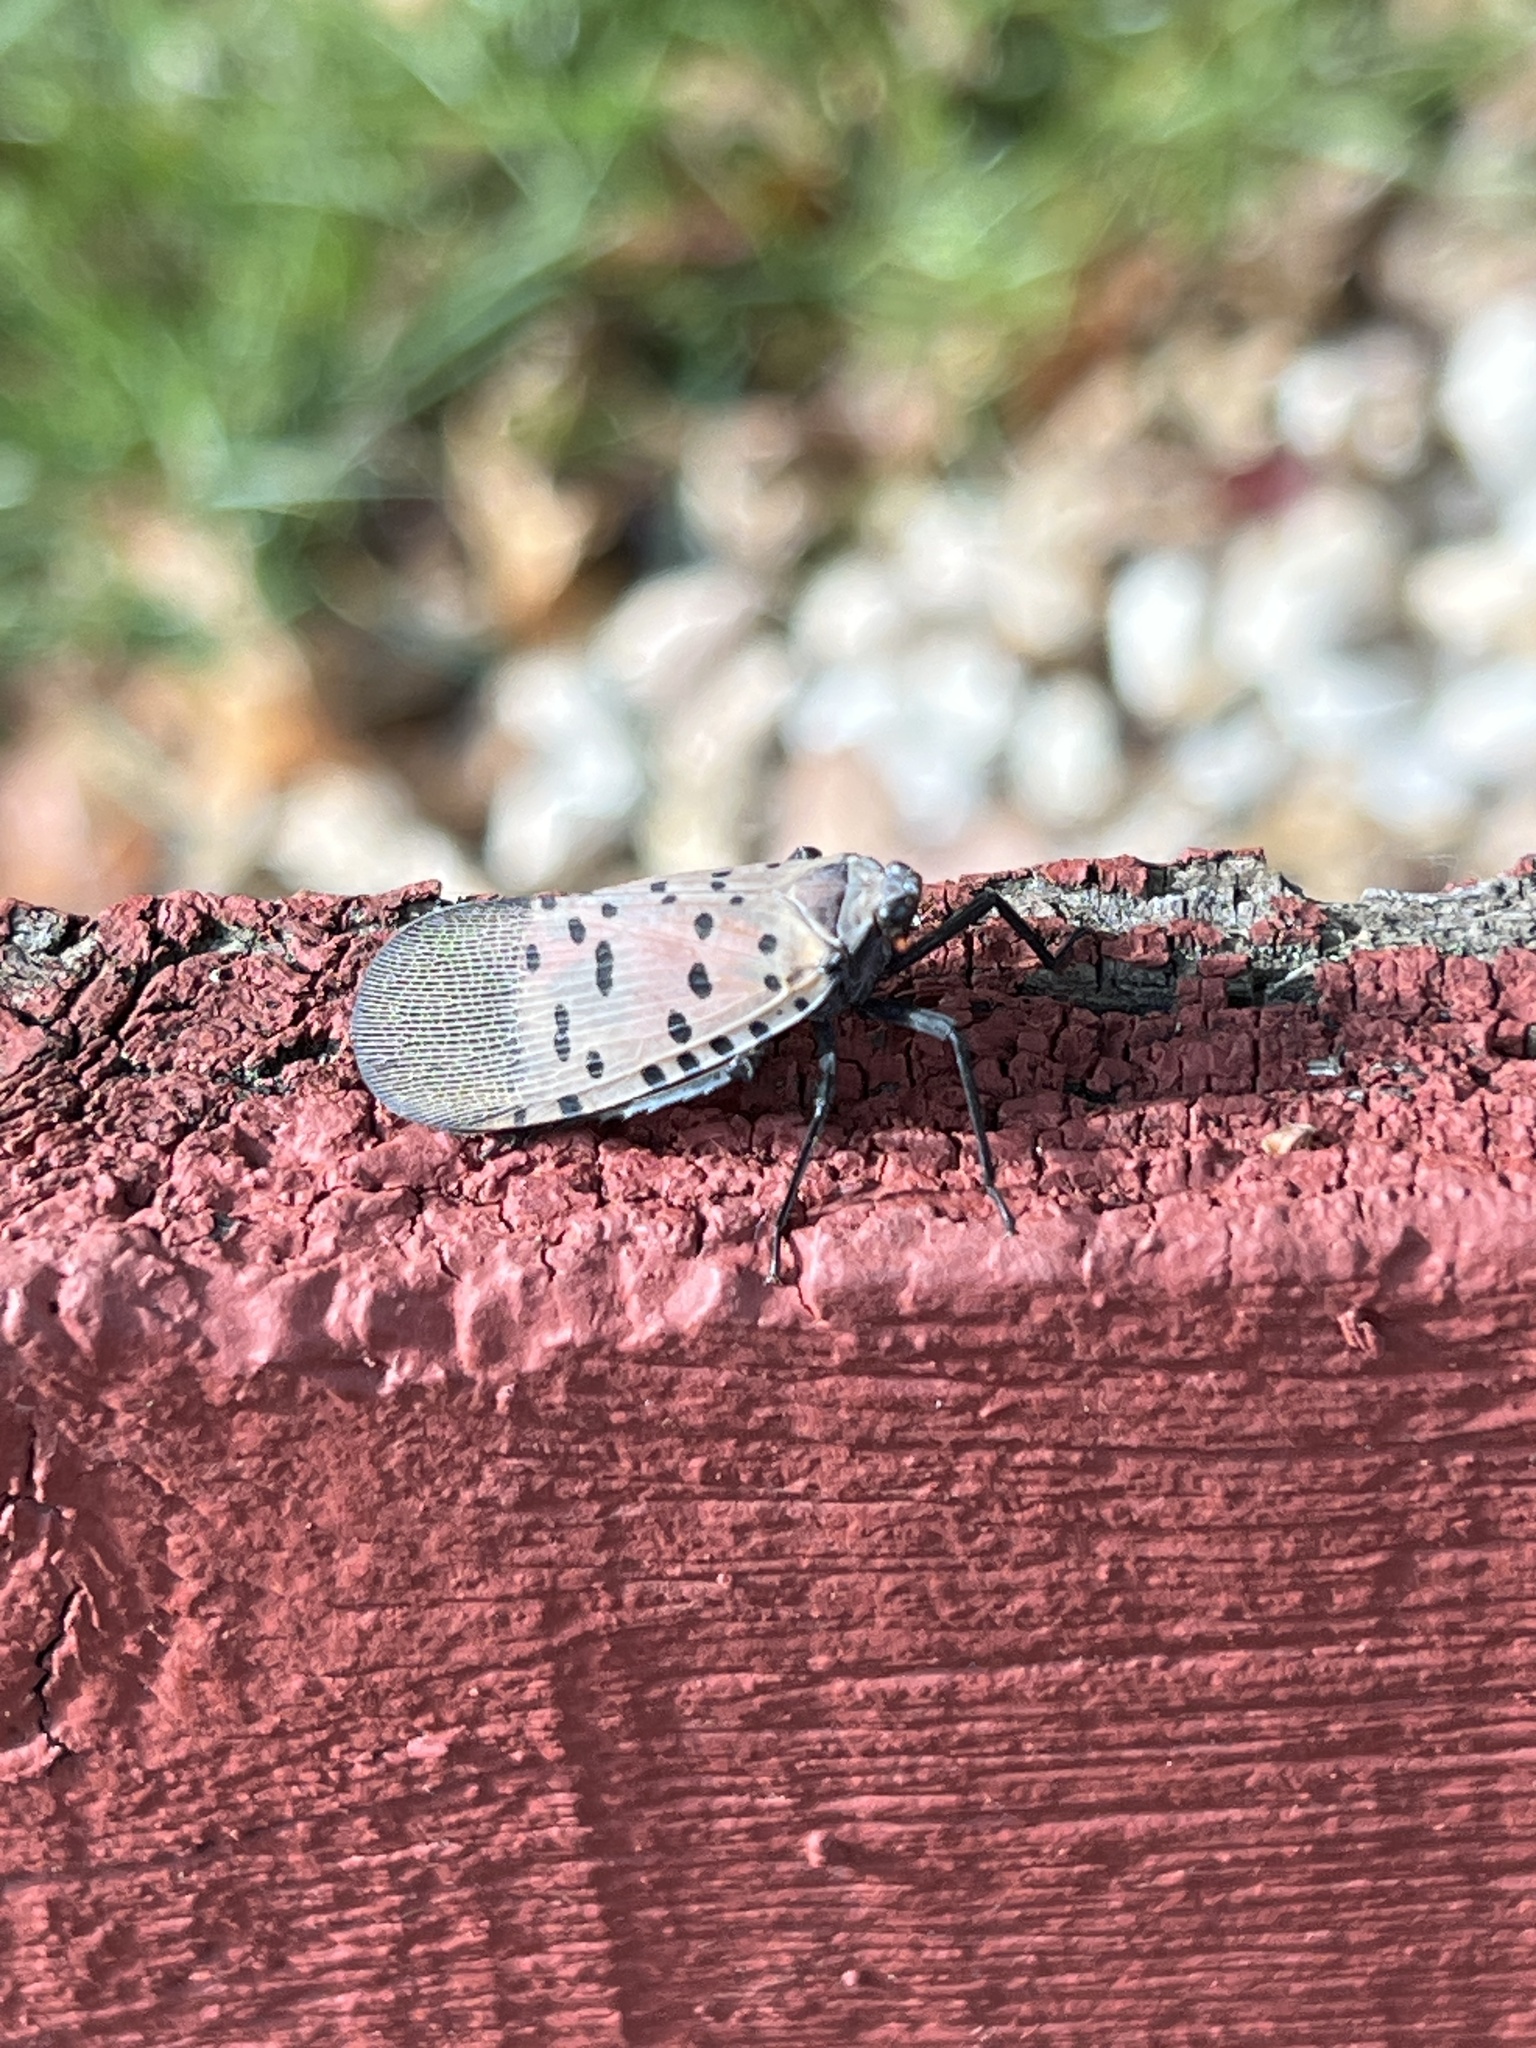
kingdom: Animalia
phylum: Arthropoda
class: Insecta
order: Hemiptera
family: Fulgoridae
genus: Lycorma
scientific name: Lycorma delicatula
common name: Spotted lanternfly
